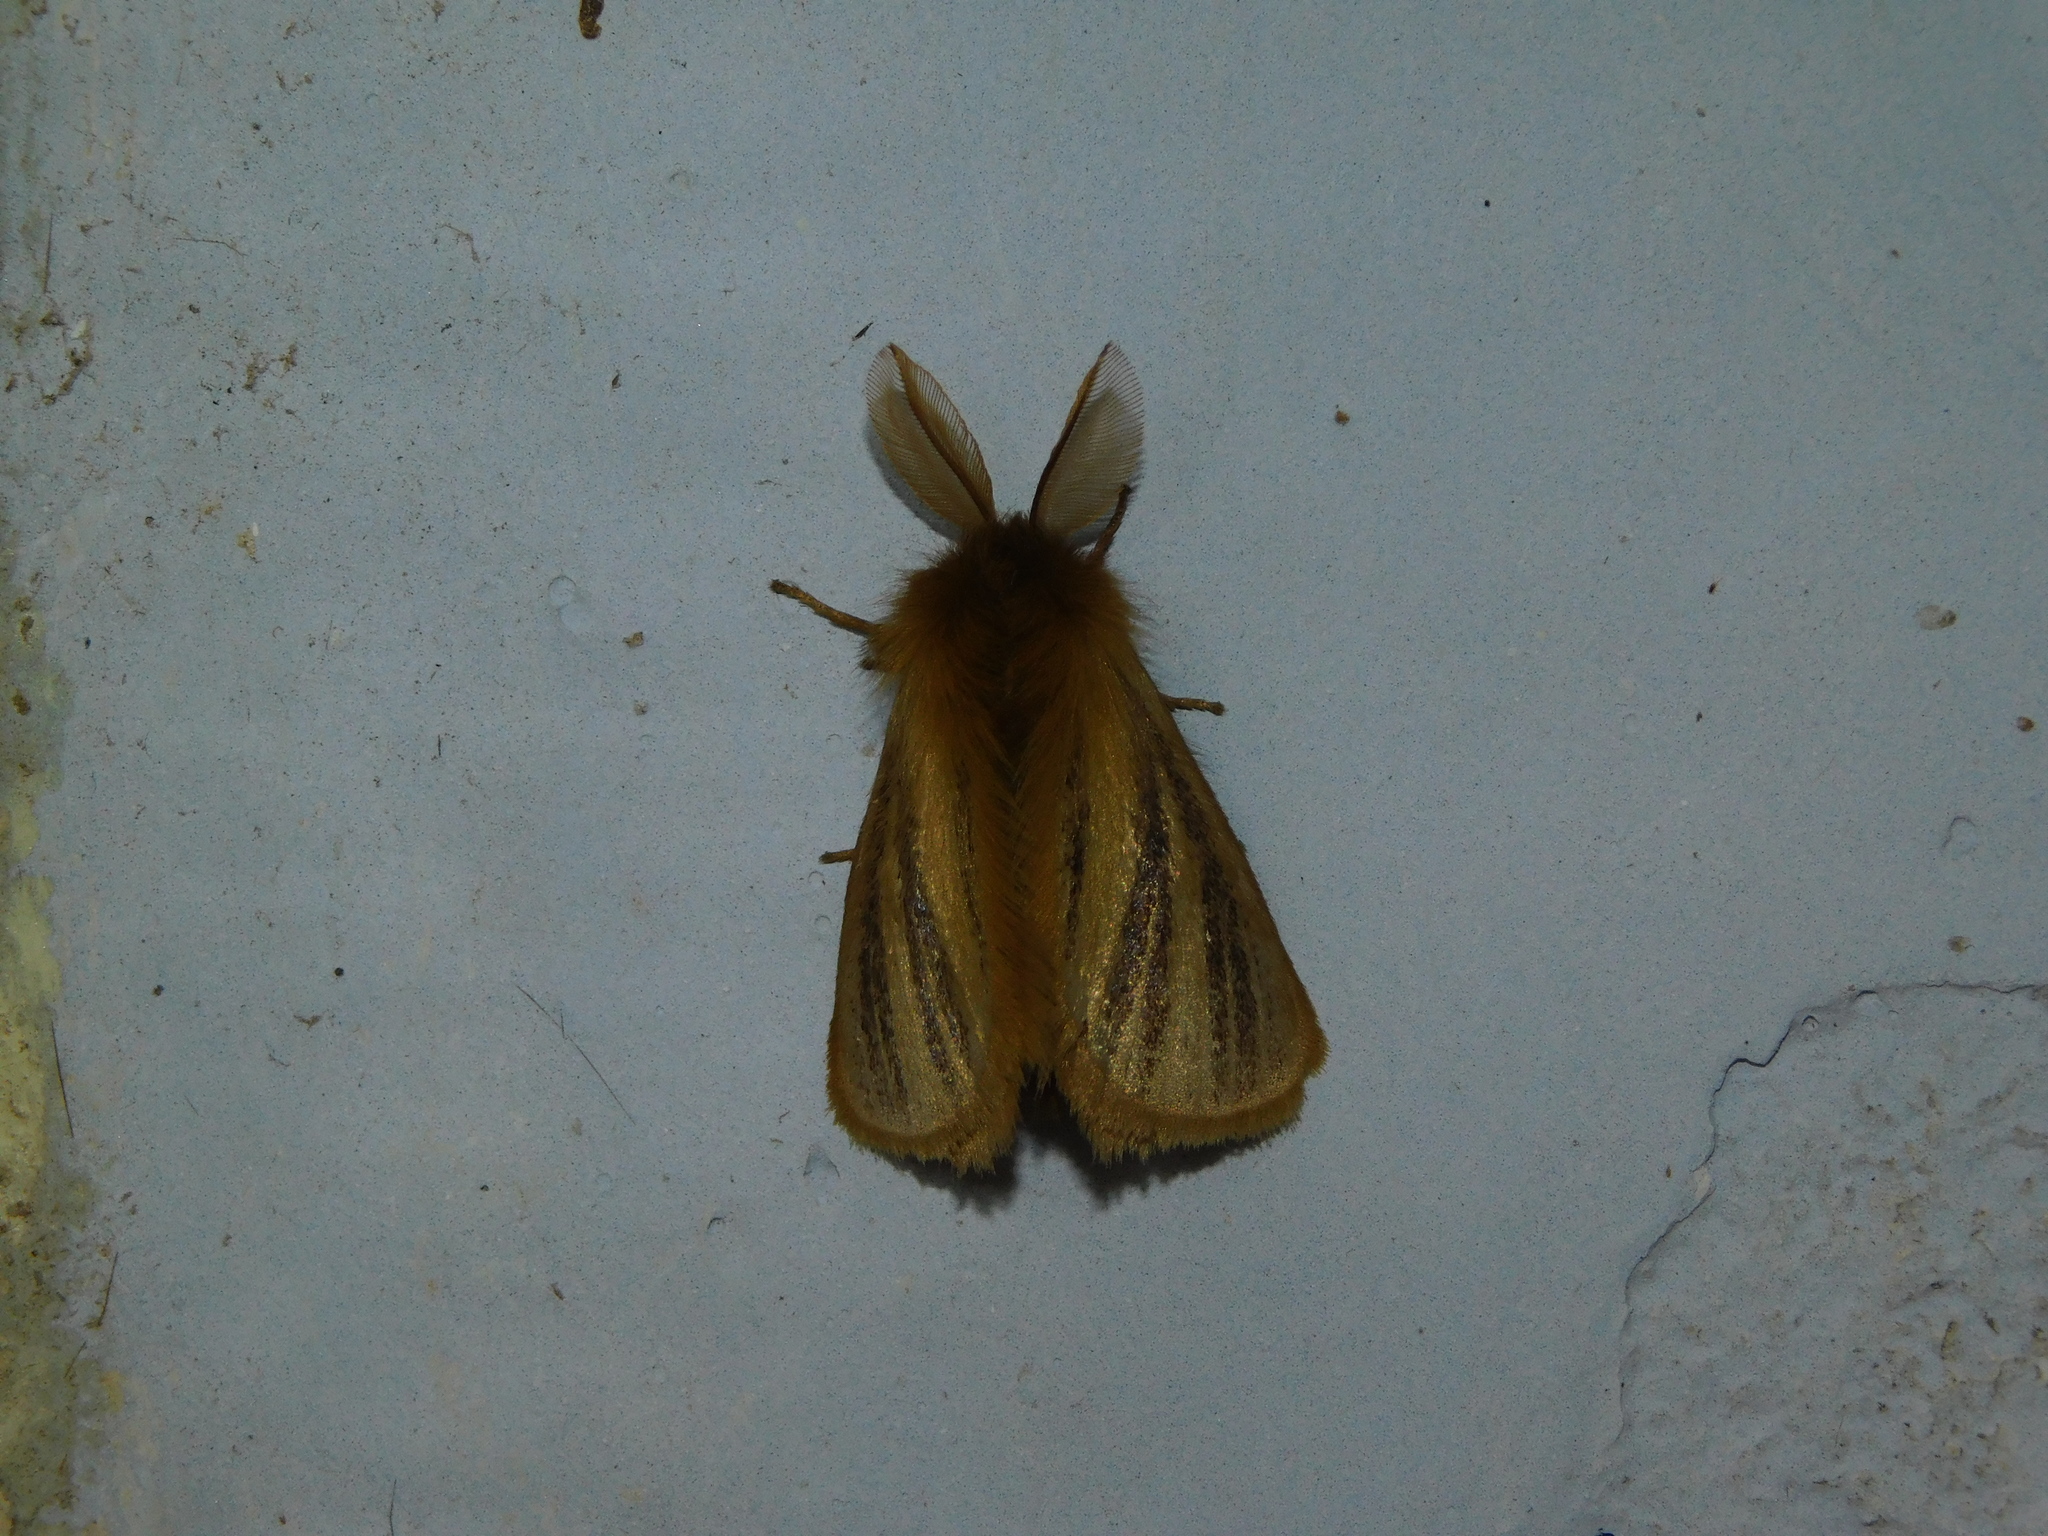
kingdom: Animalia
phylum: Arthropoda
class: Insecta
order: Lepidoptera
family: Eupterotidae
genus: Nisaga
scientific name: Nisaga simplex
